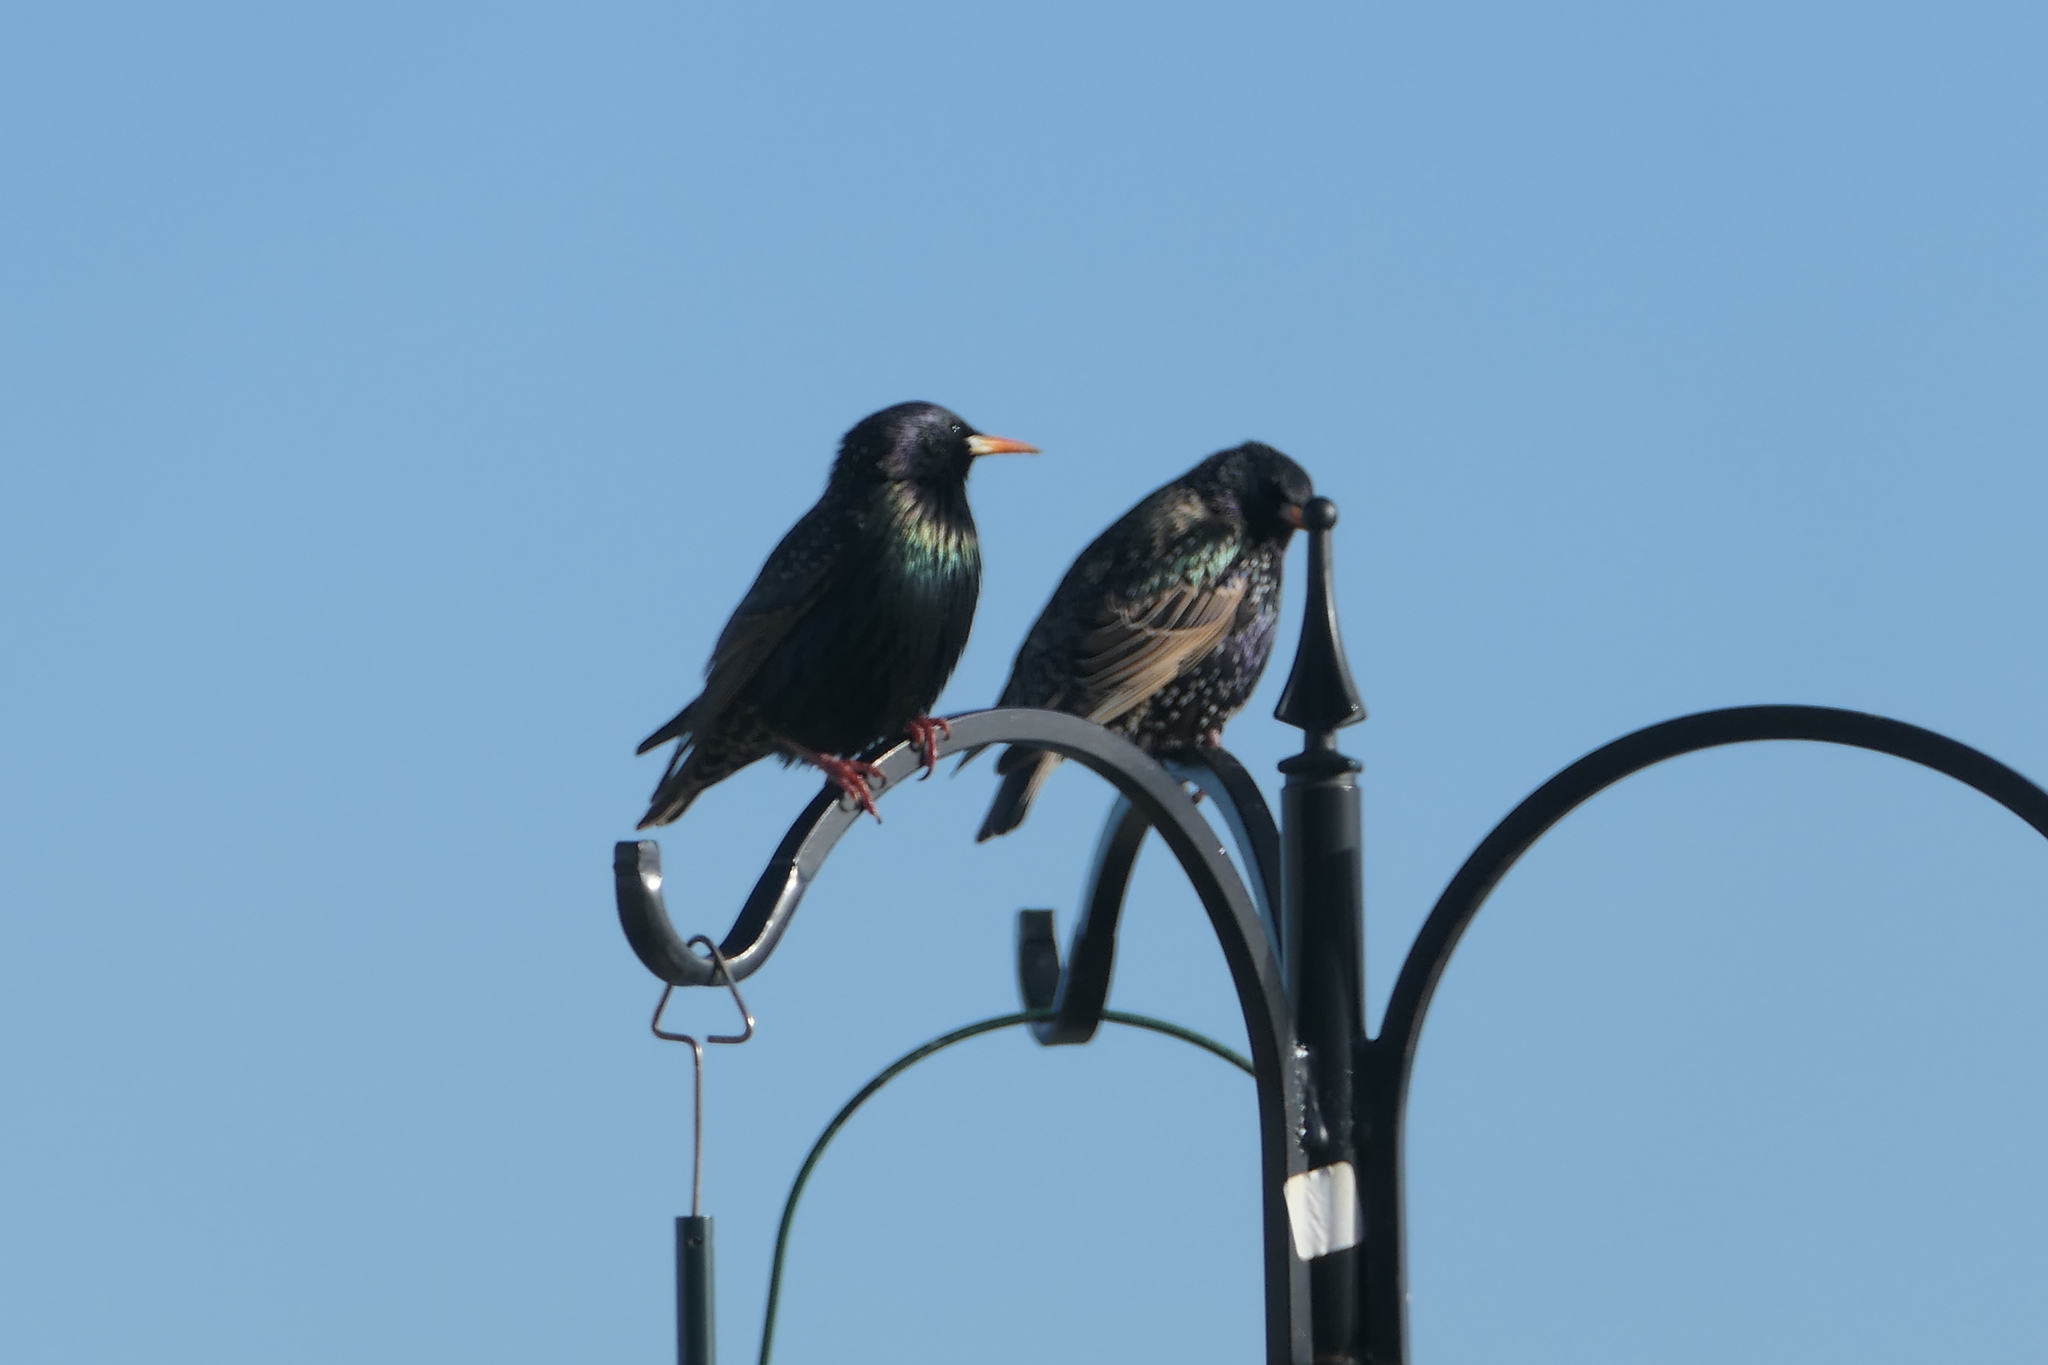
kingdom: Animalia
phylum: Chordata
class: Aves
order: Passeriformes
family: Sturnidae
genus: Sturnus
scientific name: Sturnus vulgaris
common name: Common starling
